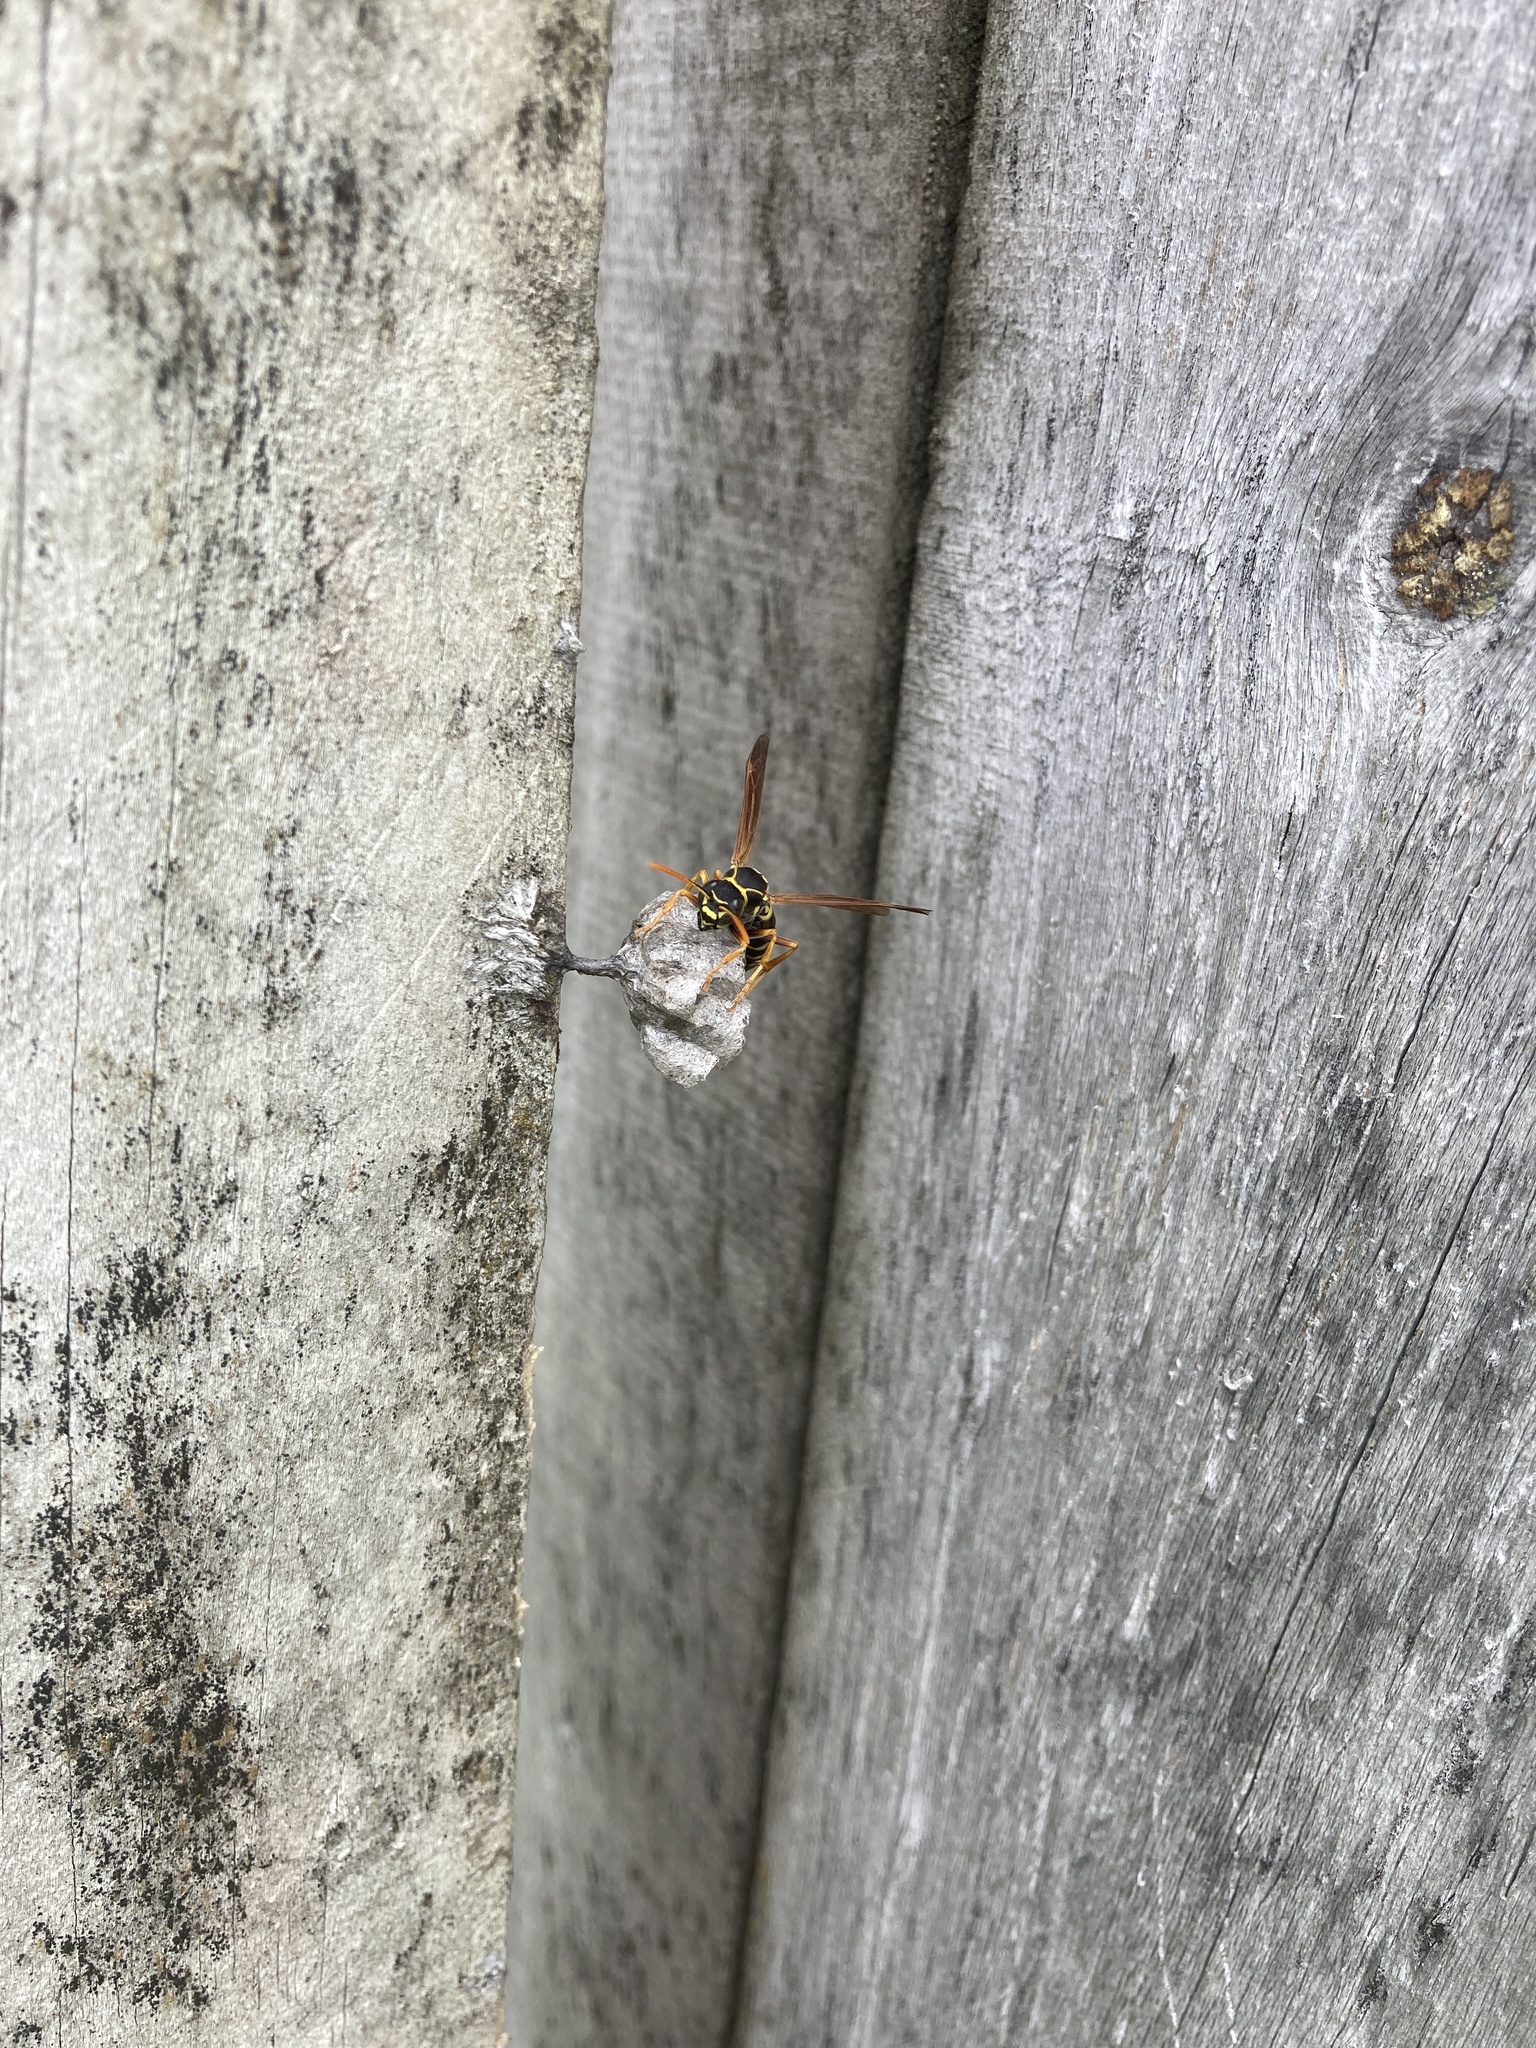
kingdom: Animalia
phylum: Arthropoda
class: Insecta
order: Hymenoptera
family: Eumenidae
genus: Polistes
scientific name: Polistes chinensis
